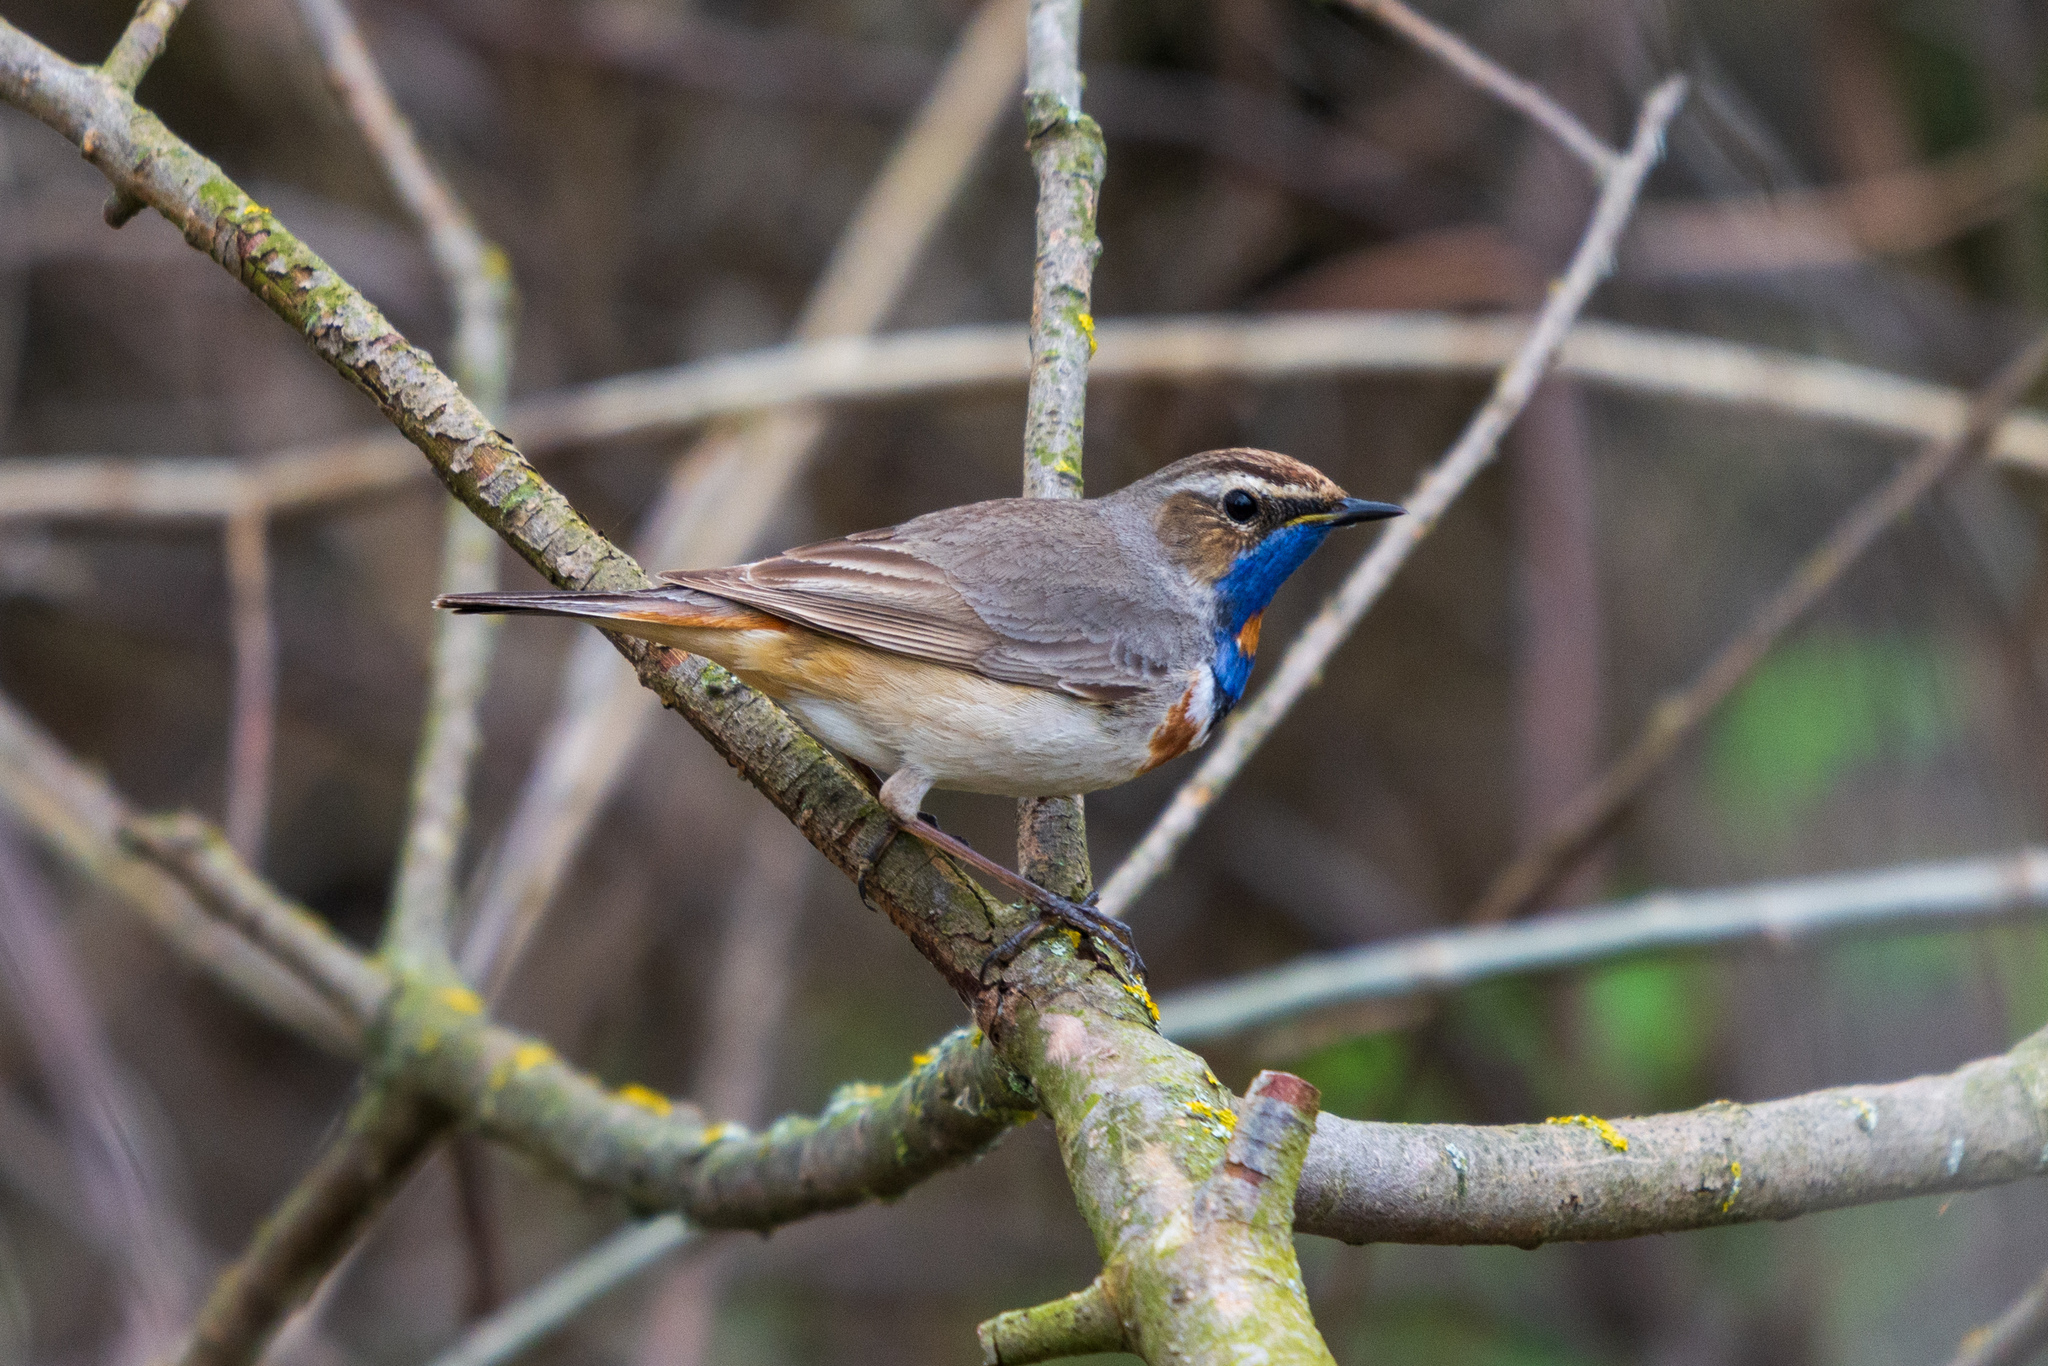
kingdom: Animalia
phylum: Chordata
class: Aves
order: Passeriformes
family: Muscicapidae
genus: Luscinia
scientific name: Luscinia svecica
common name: Bluethroat
